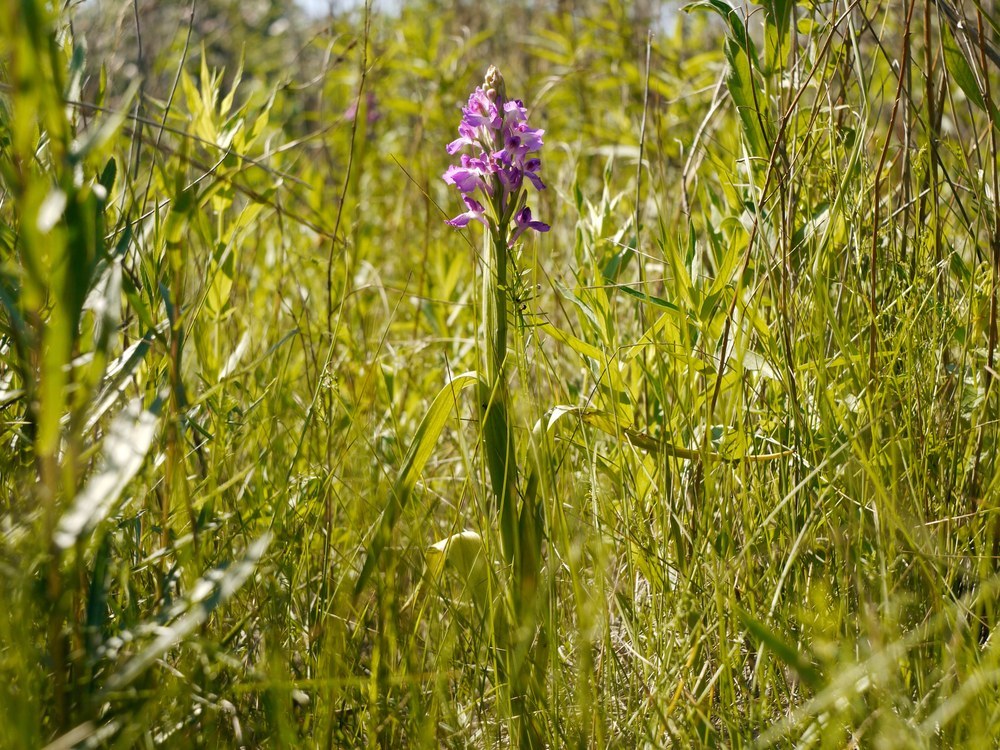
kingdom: Plantae
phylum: Tracheophyta
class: Liliopsida
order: Asparagales
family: Orchidaceae
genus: Anacamptis
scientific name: Anacamptis palustris
